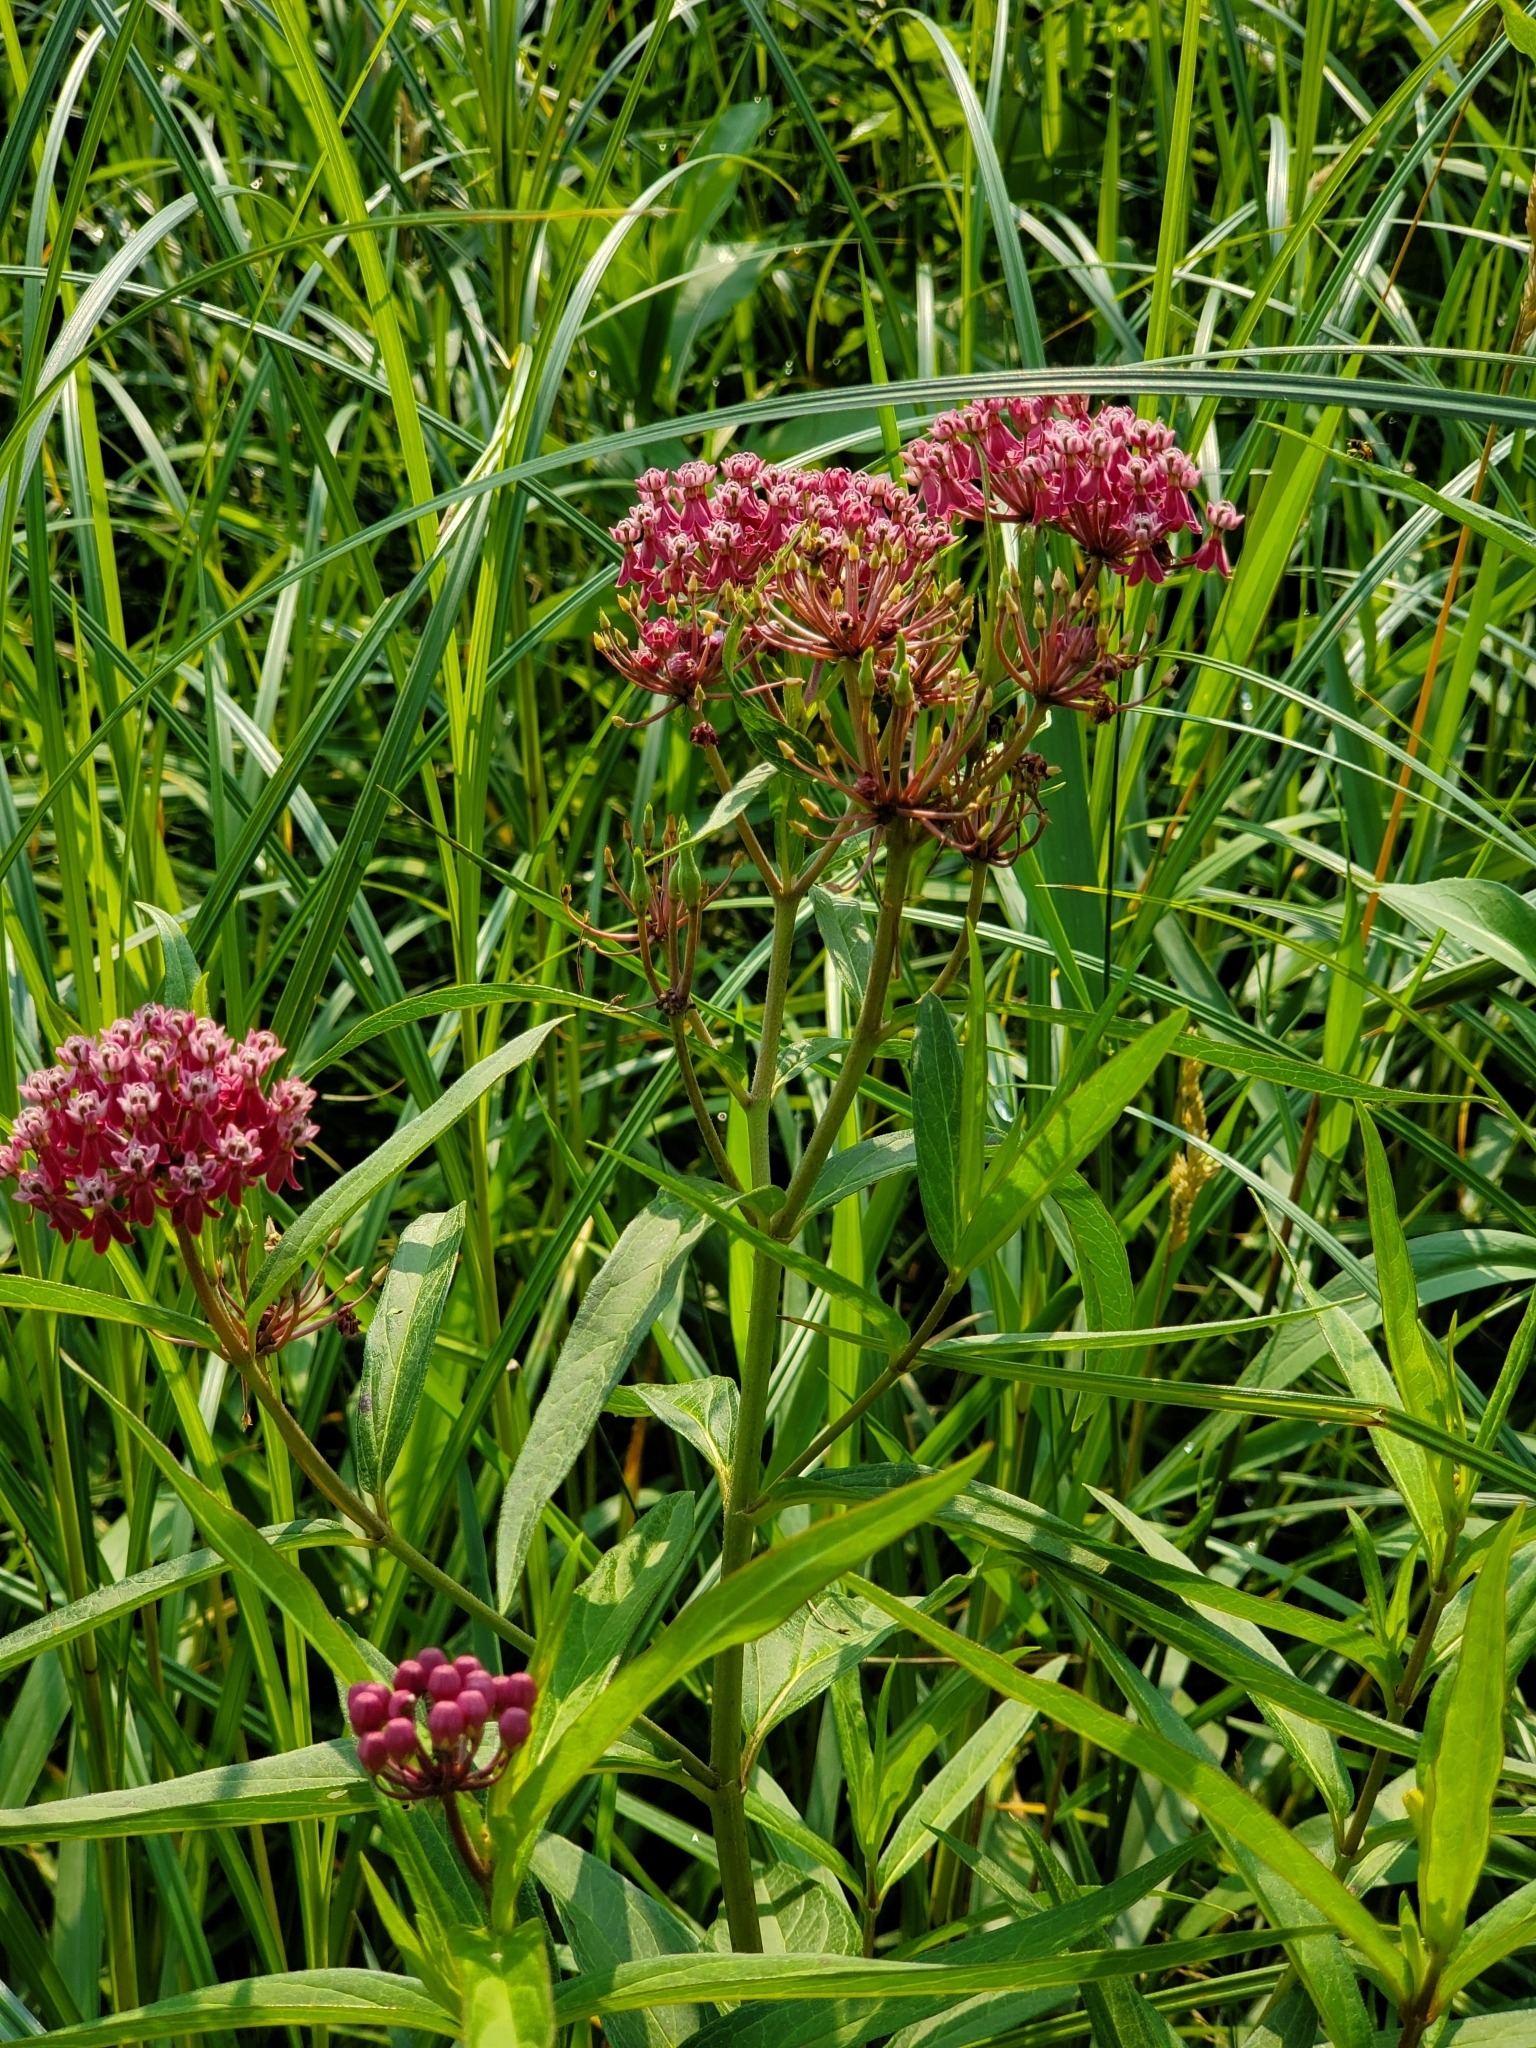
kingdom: Plantae
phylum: Tracheophyta
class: Magnoliopsida
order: Gentianales
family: Apocynaceae
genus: Asclepias
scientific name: Asclepias incarnata
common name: Swamp milkweed
